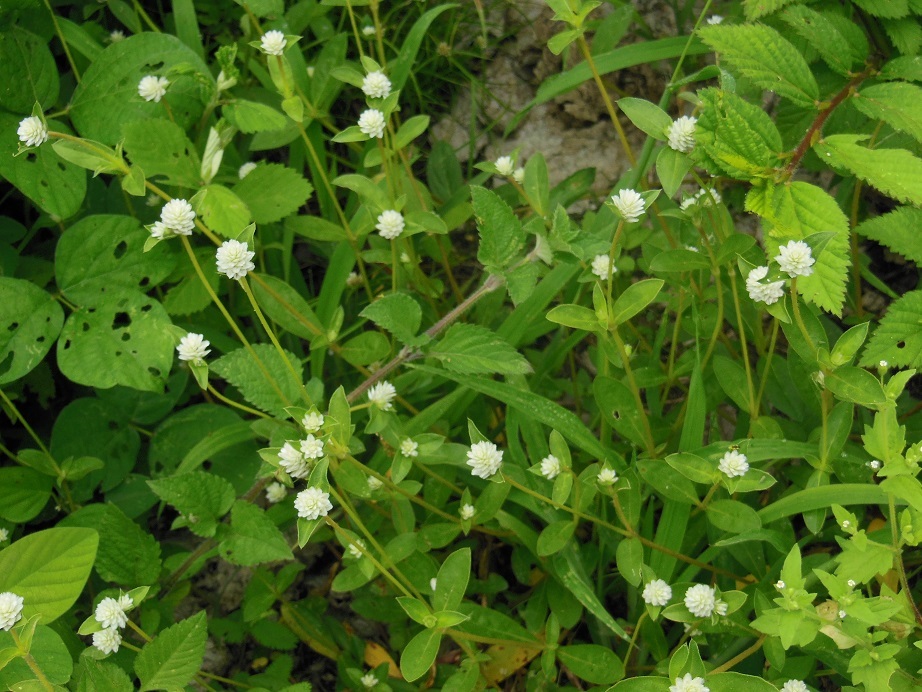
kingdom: Plantae
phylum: Tracheophyta
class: Magnoliopsida
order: Caryophyllales
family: Amaranthaceae
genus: Gomphrena
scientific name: Gomphrena serrata
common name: Arrasa con todo
